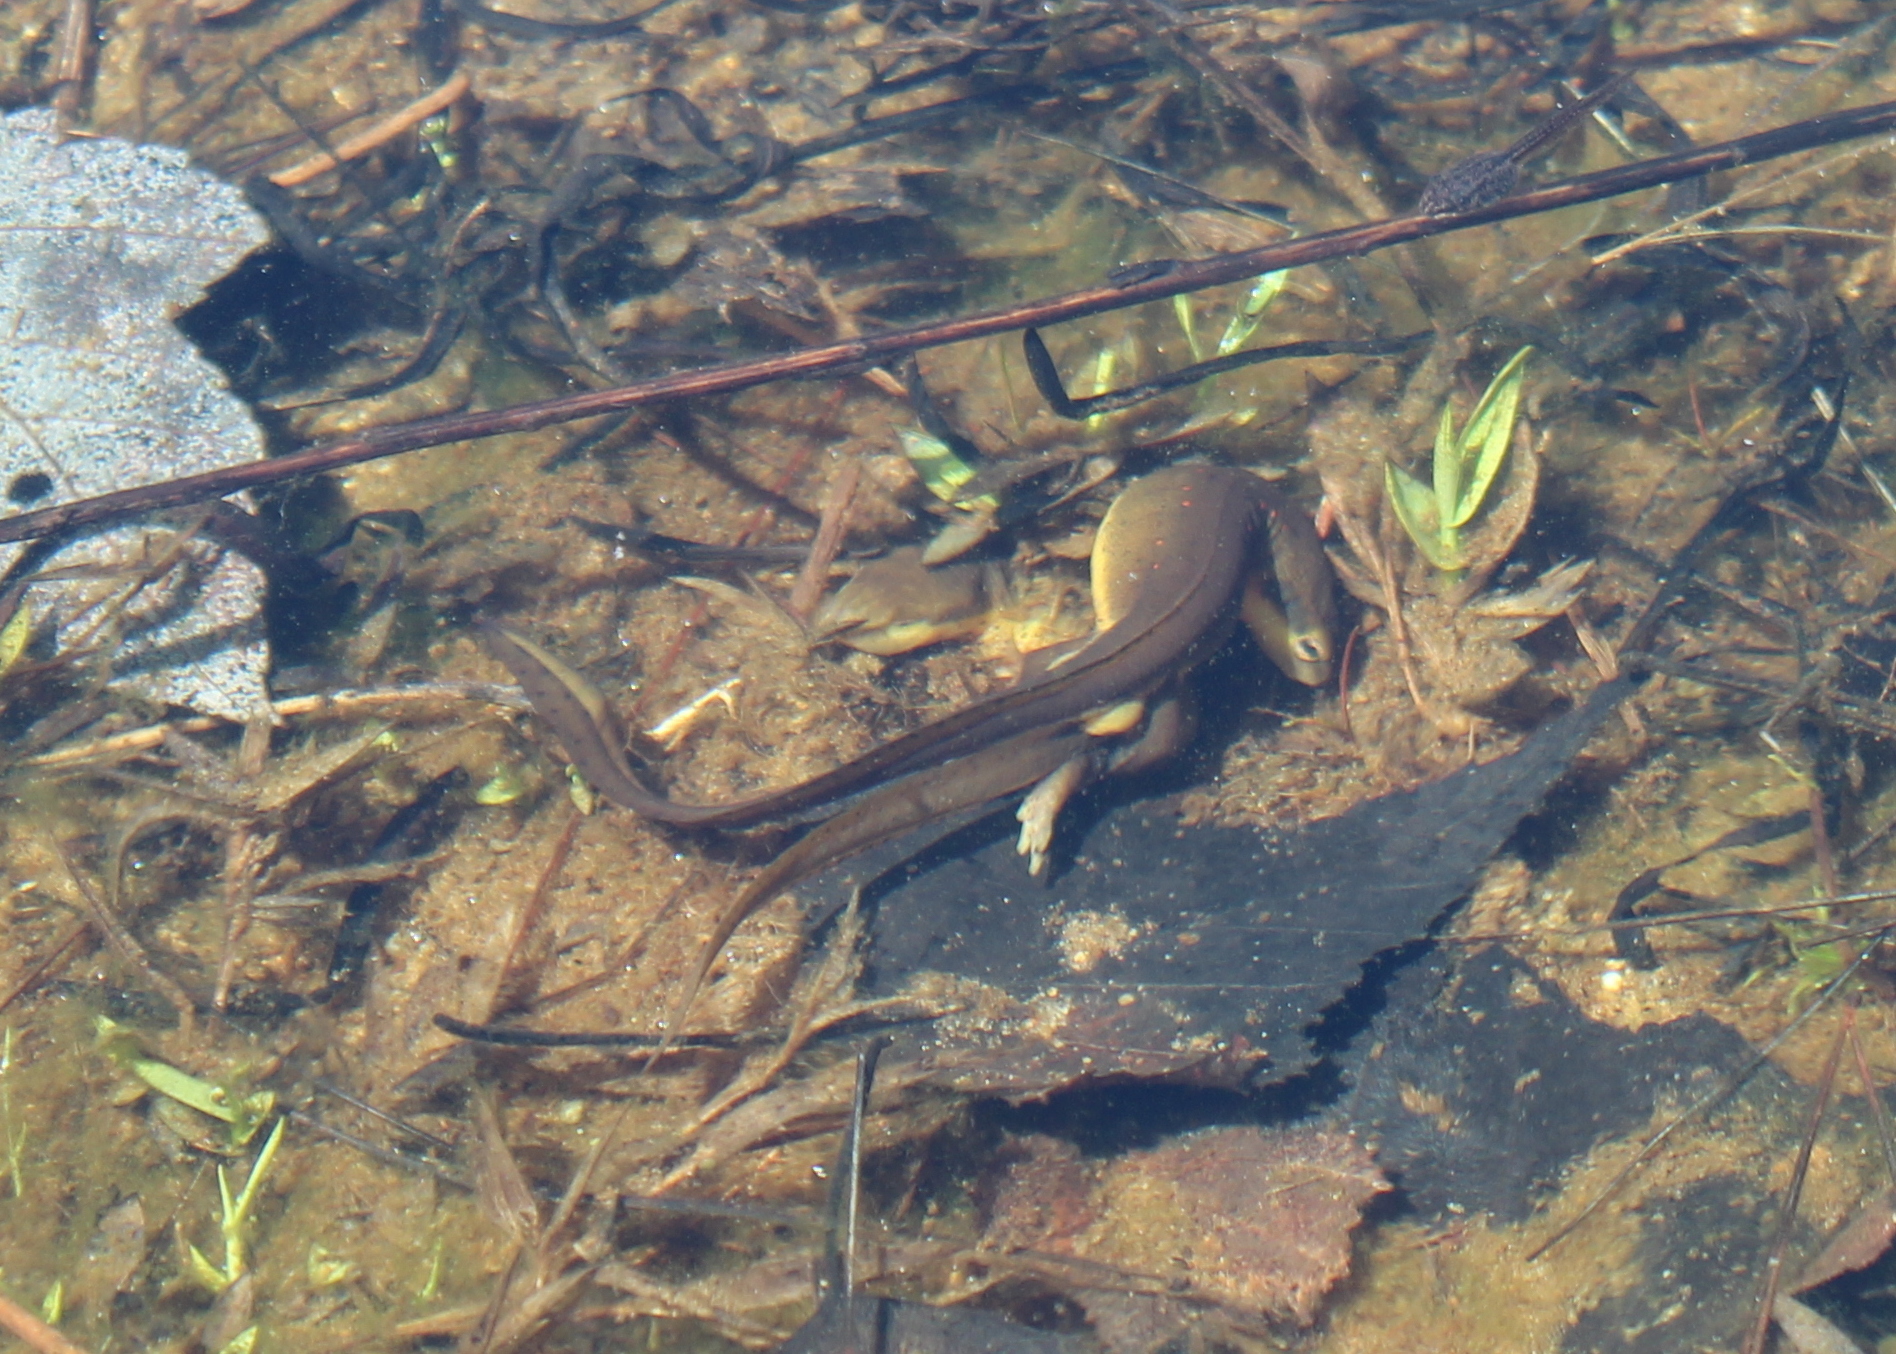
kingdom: Animalia
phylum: Chordata
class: Amphibia
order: Caudata
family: Salamandridae
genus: Notophthalmus
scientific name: Notophthalmus viridescens
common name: Eastern newt
